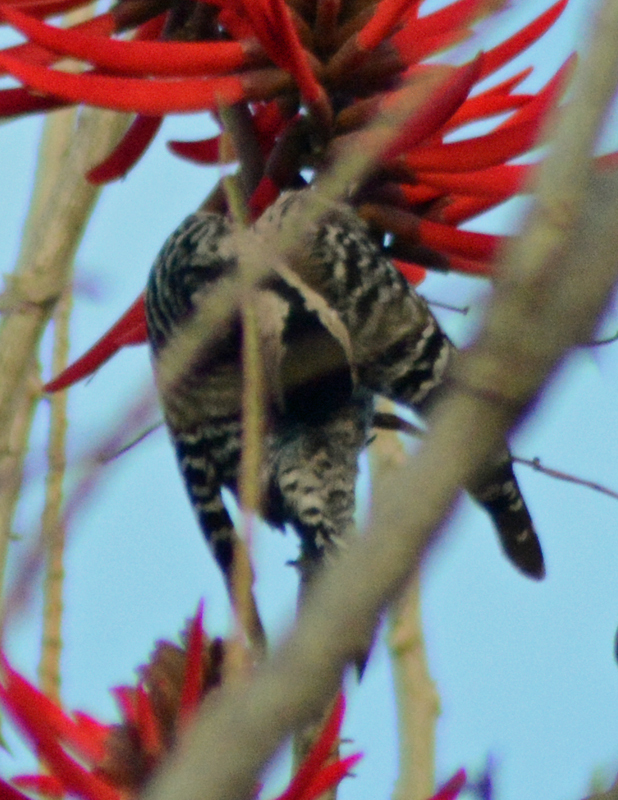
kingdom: Animalia
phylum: Chordata
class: Aves
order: Piciformes
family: Picidae
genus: Dryobates
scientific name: Dryobates scalaris
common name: Ladder-backed woodpecker
